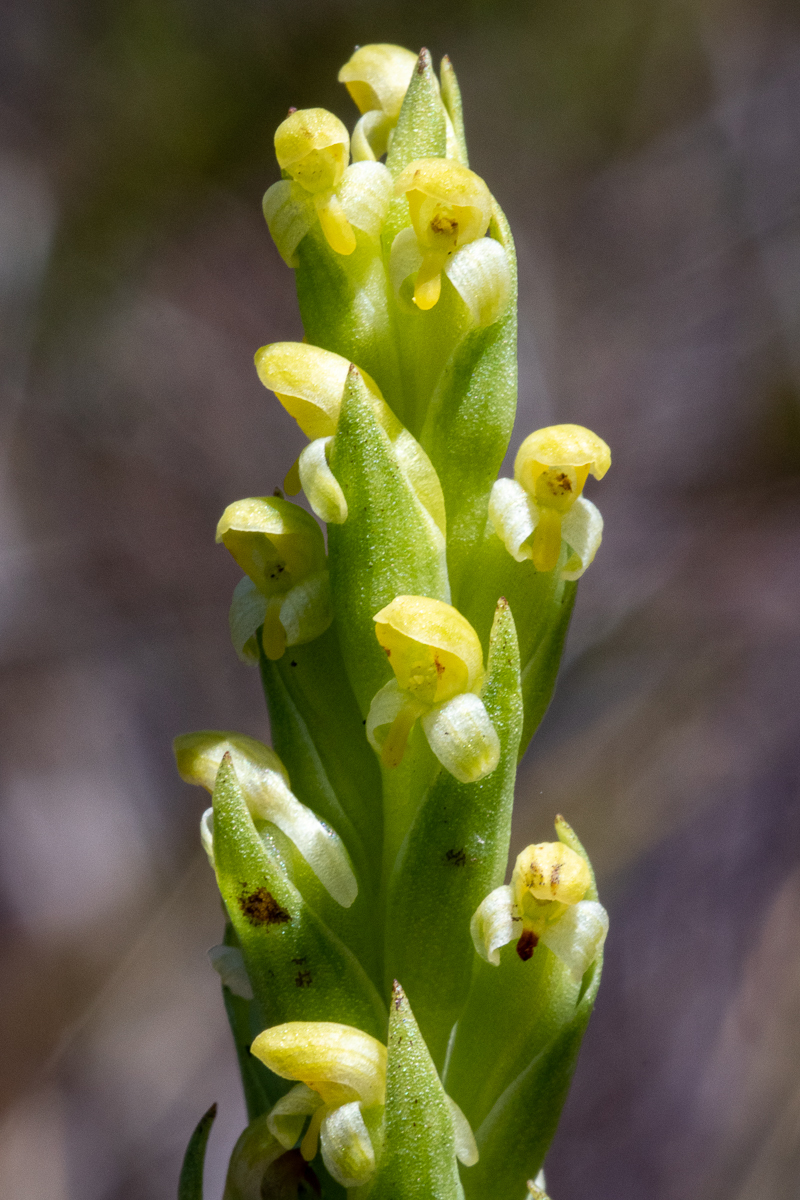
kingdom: Plantae
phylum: Tracheophyta
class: Liliopsida
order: Asparagales
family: Orchidaceae
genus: Disa
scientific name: Disa bracteata
